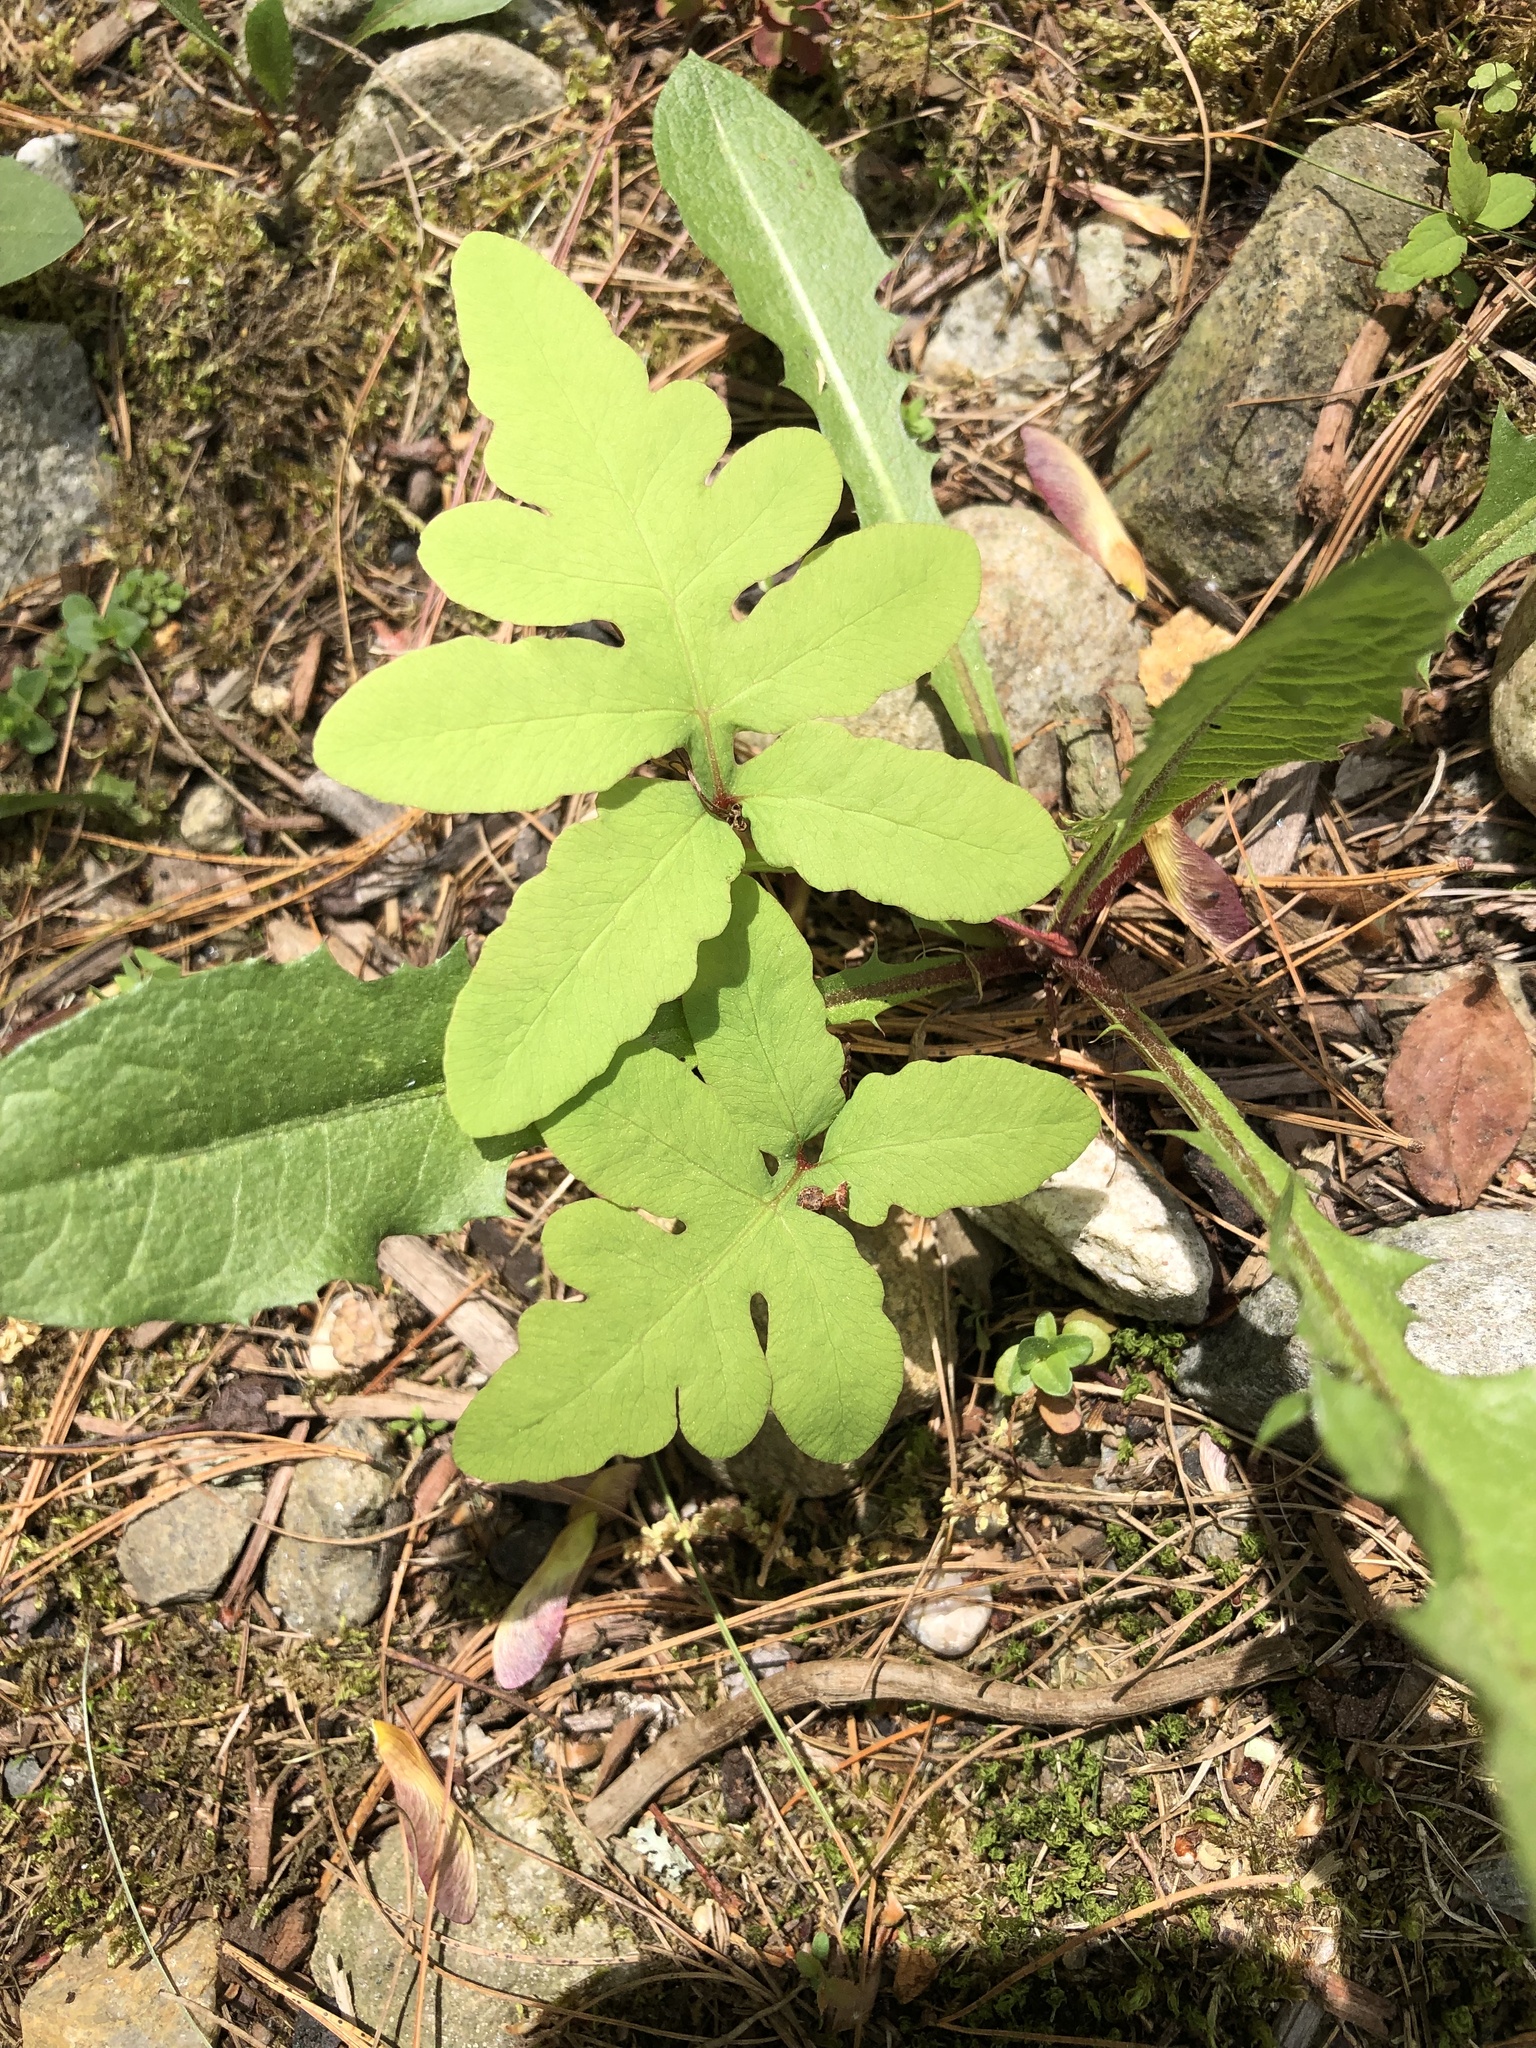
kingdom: Plantae
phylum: Tracheophyta
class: Polypodiopsida
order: Polypodiales
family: Onocleaceae
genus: Onoclea
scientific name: Onoclea sensibilis
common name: Sensitive fern
